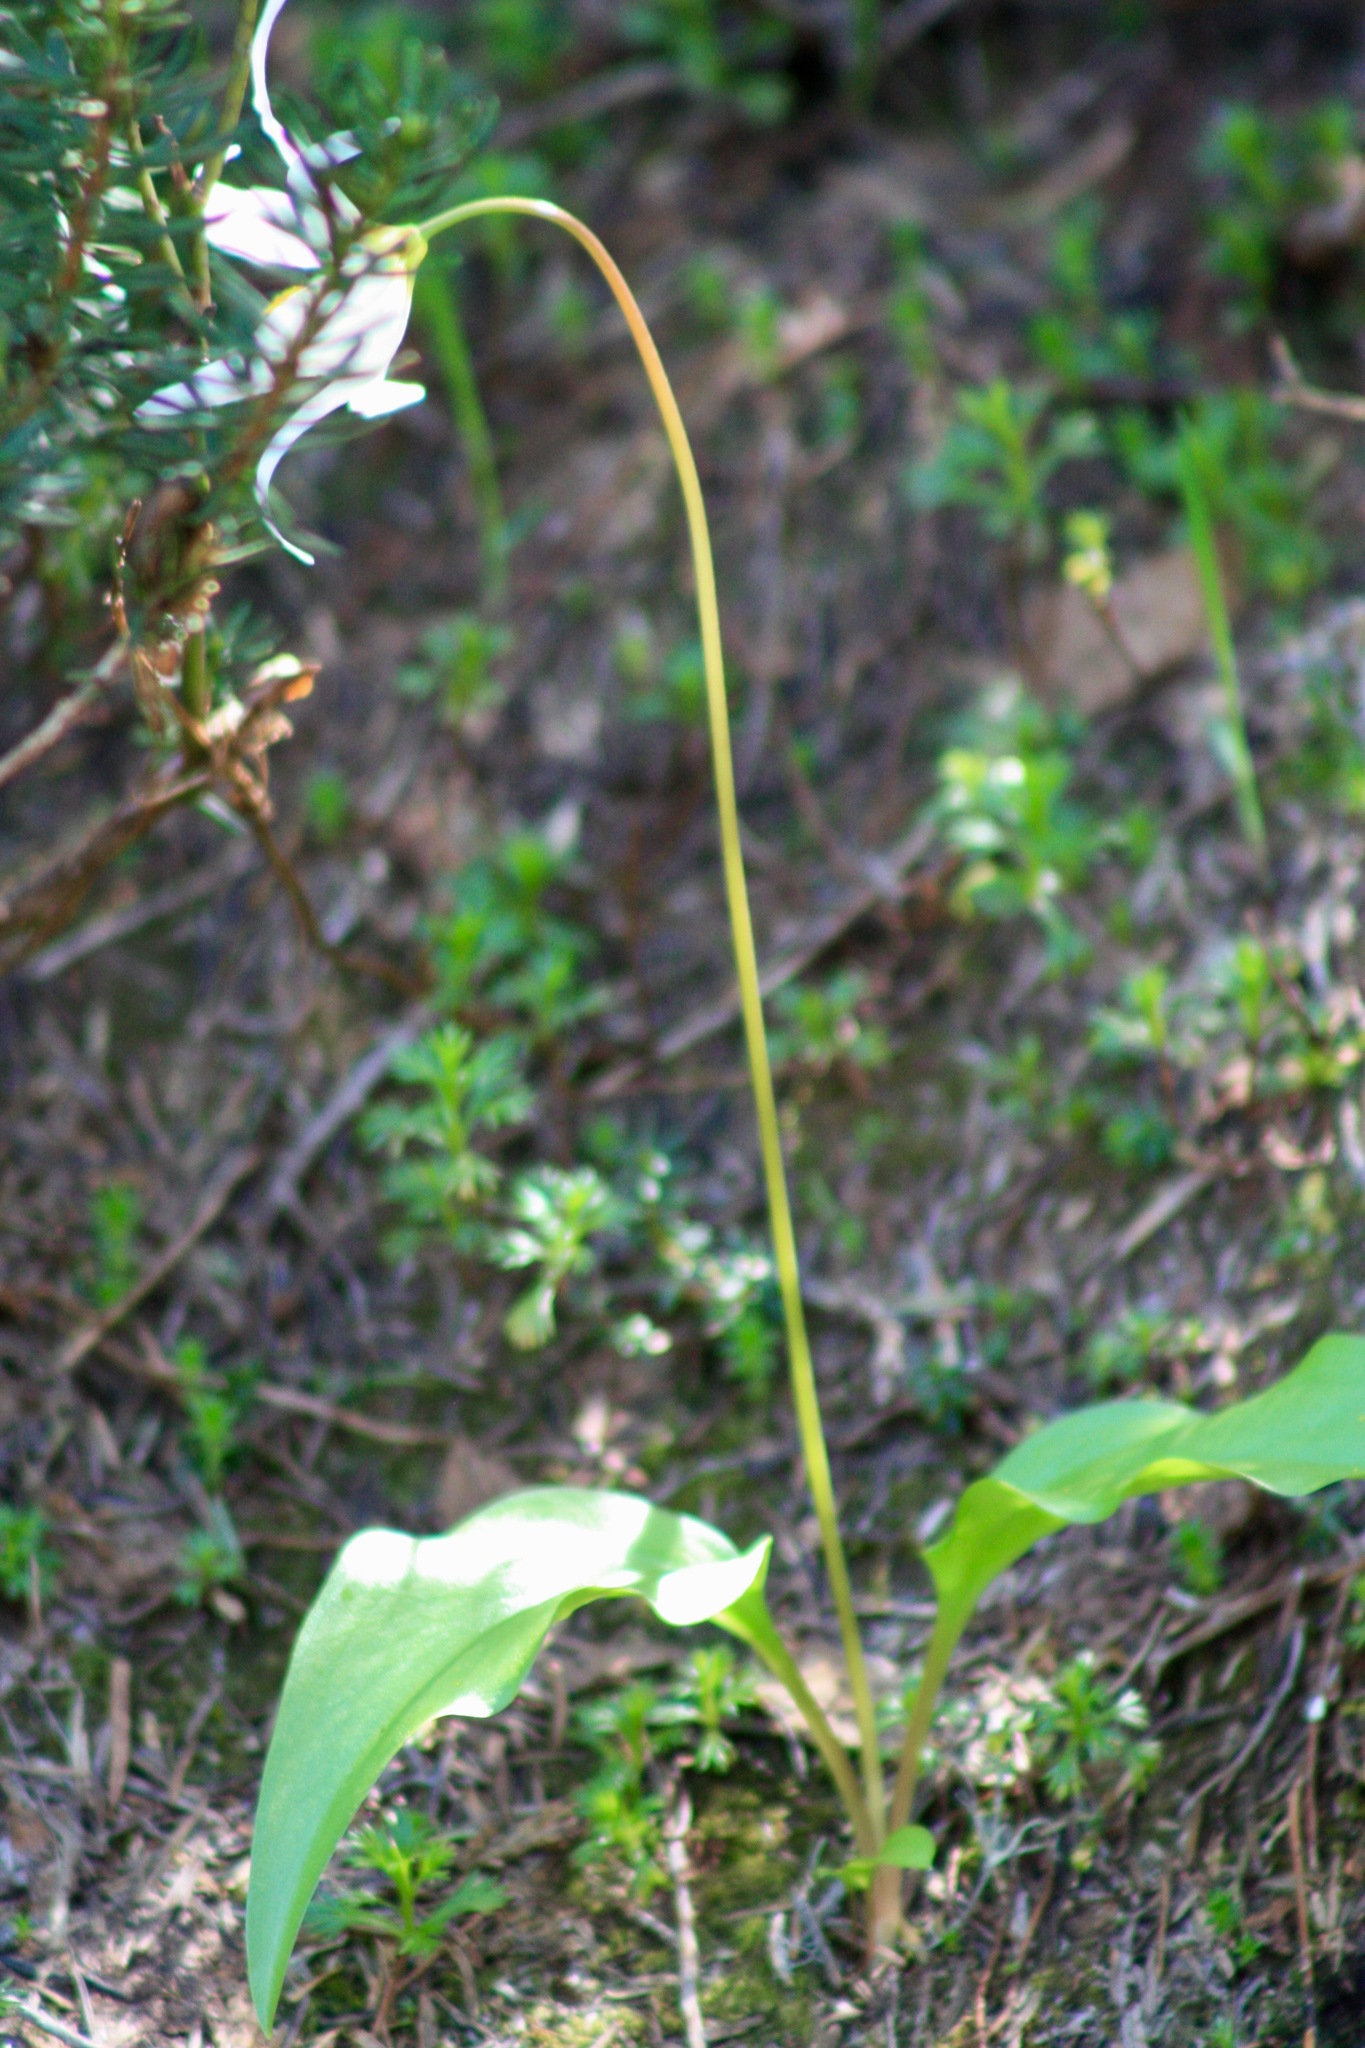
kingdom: Plantae
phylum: Tracheophyta
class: Liliopsida
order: Liliales
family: Liliaceae
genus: Erythronium
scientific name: Erythronium montanum
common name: Avalanche lily
